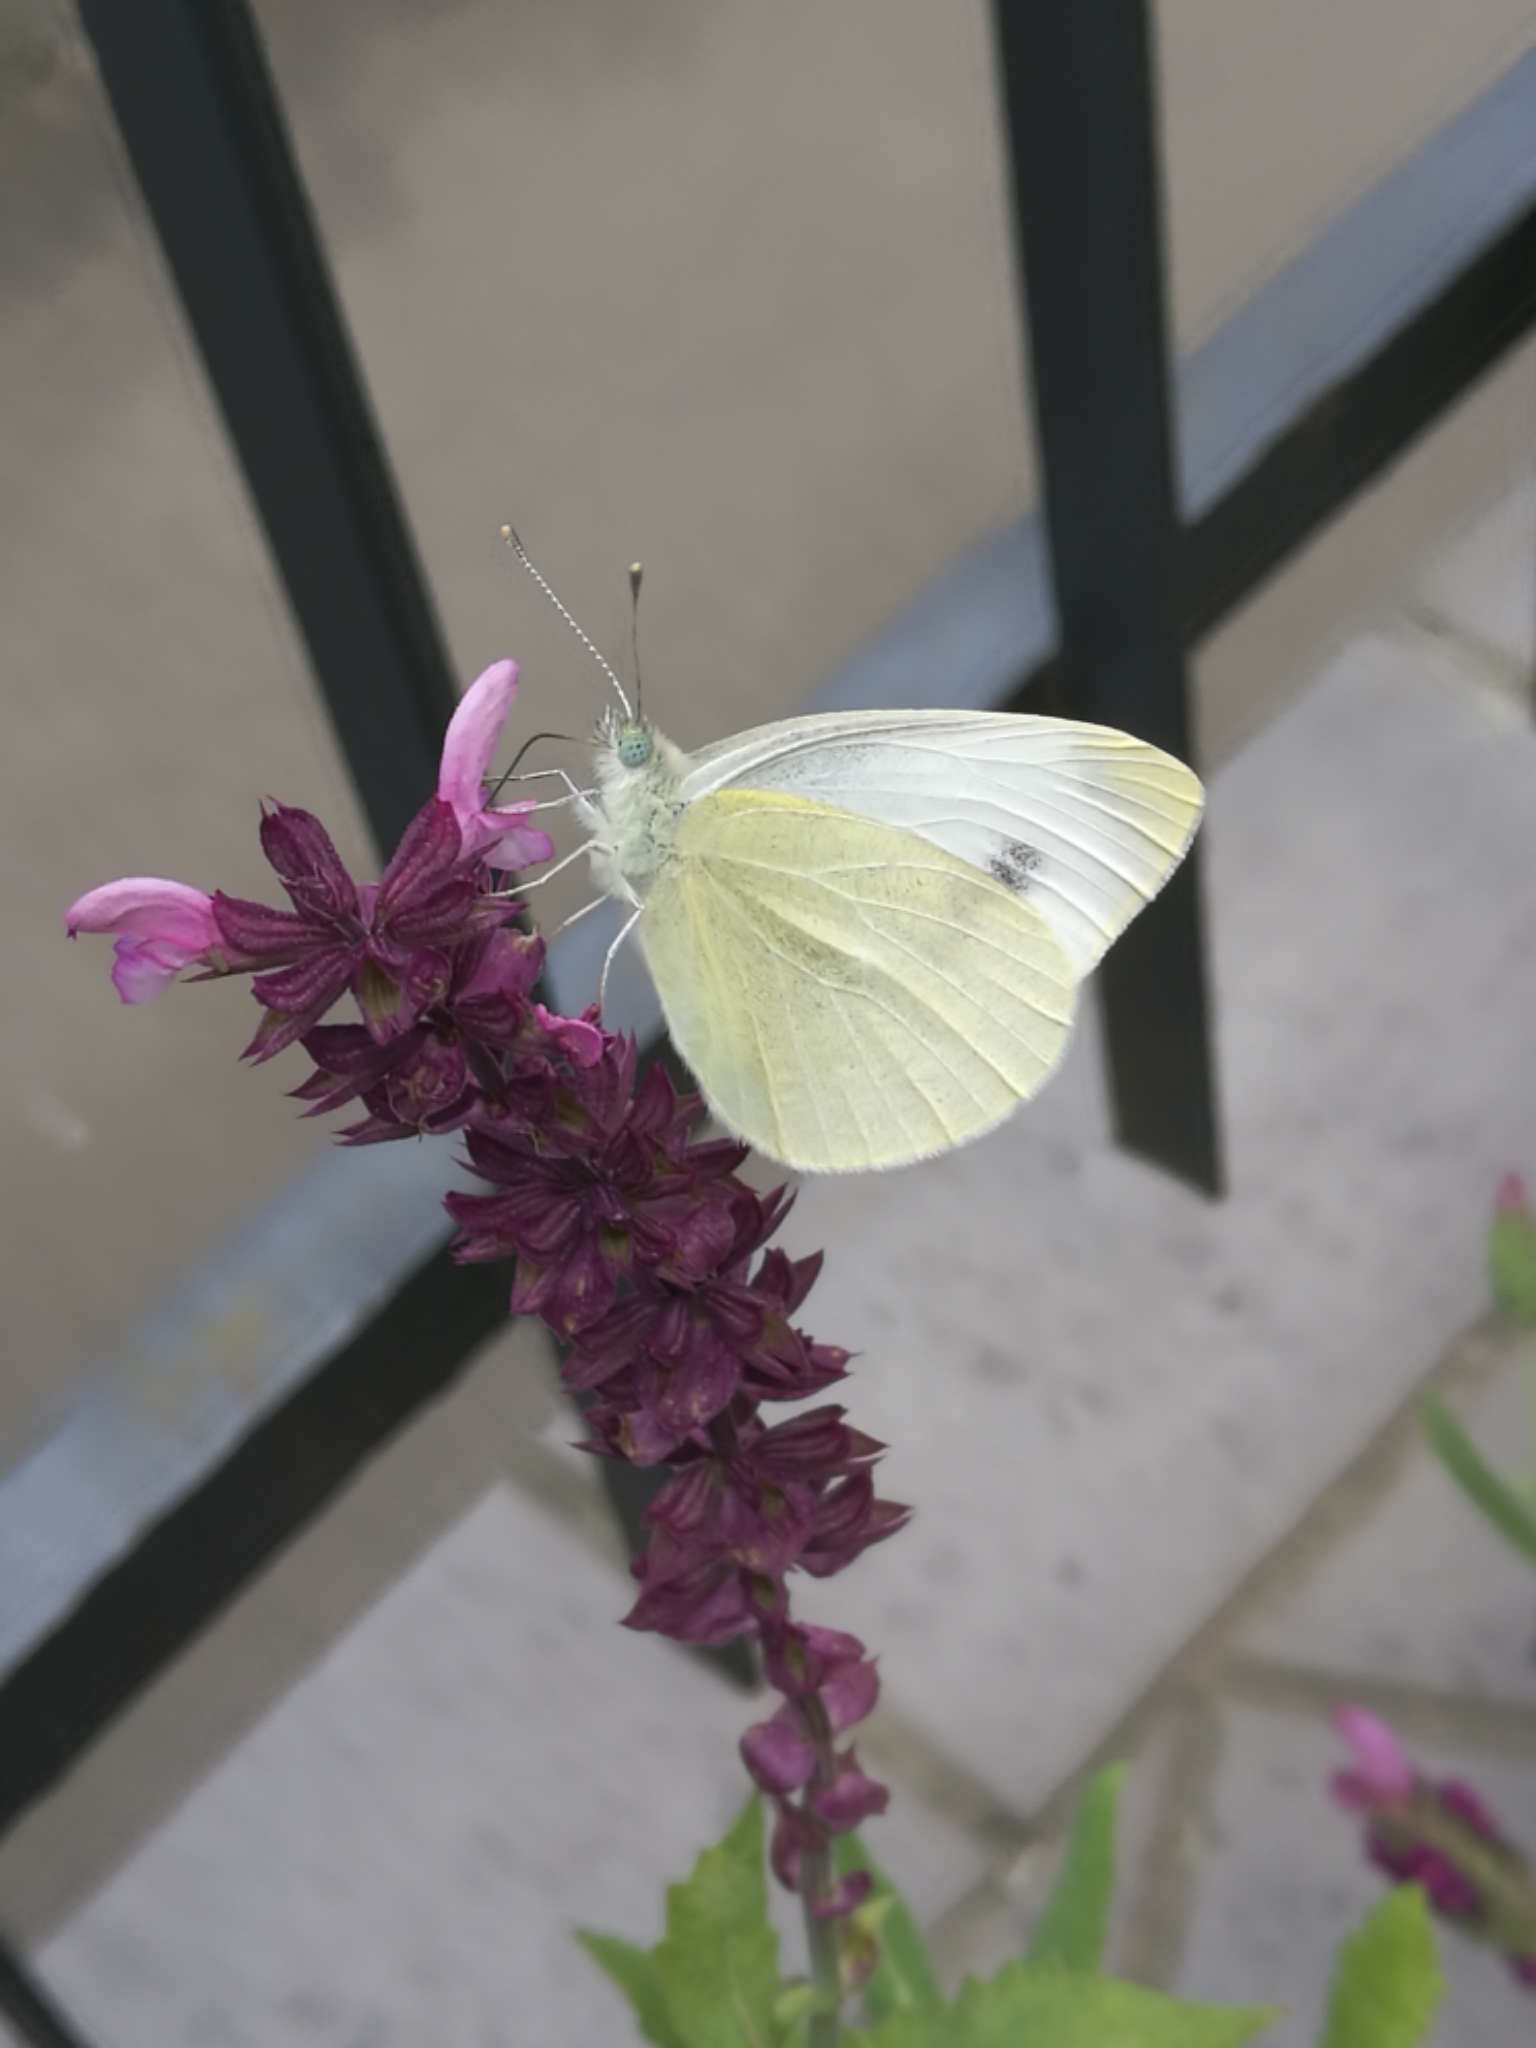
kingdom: Animalia
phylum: Arthropoda
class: Insecta
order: Lepidoptera
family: Pieridae
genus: Pieris
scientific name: Pieris rapae
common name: Small white
